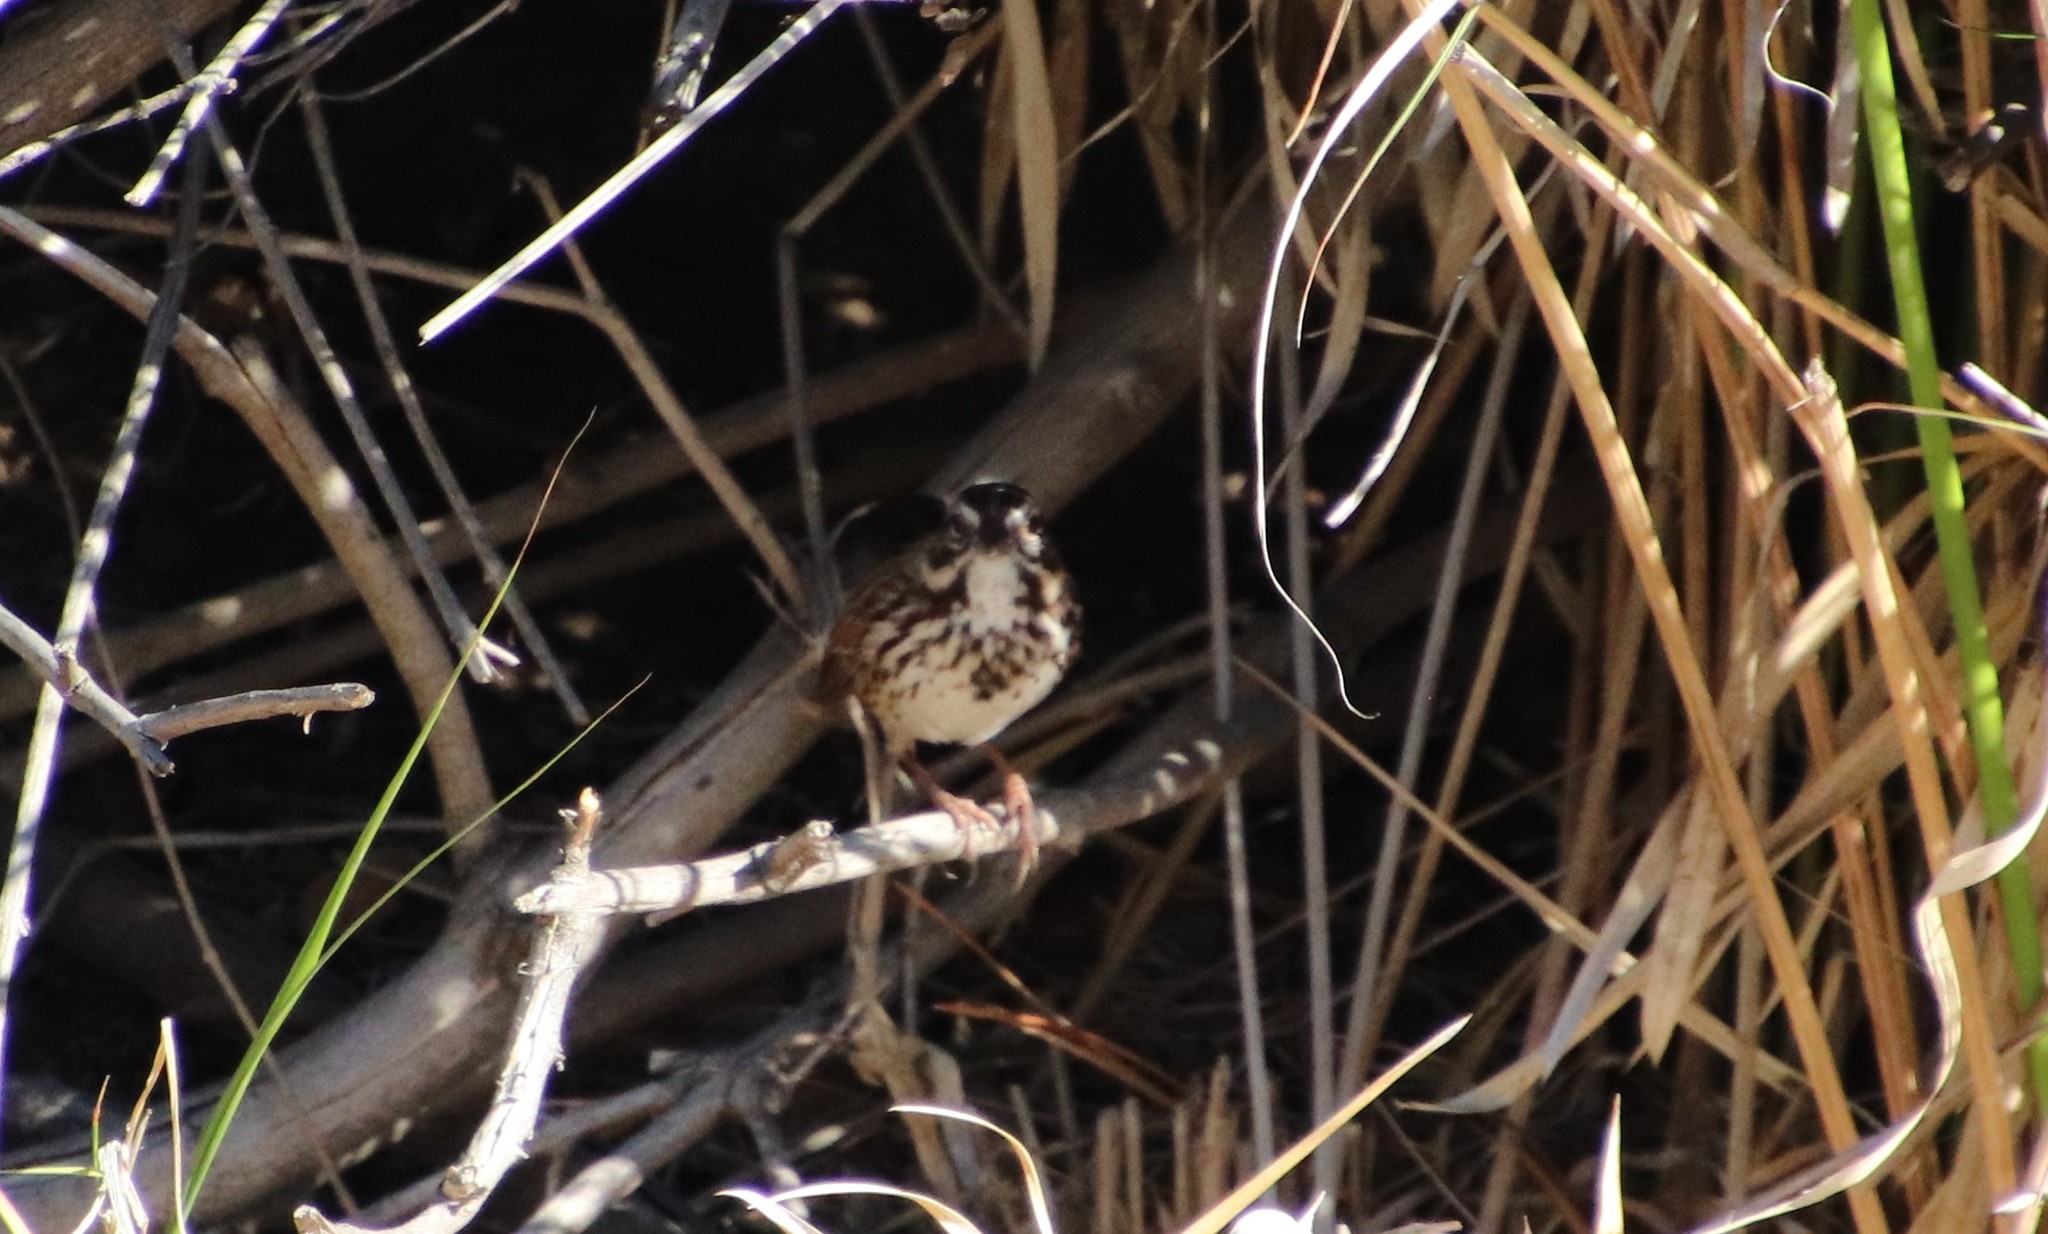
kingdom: Animalia
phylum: Chordata
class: Aves
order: Passeriformes
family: Passerellidae
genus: Melospiza
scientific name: Melospiza melodia
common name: Song sparrow
